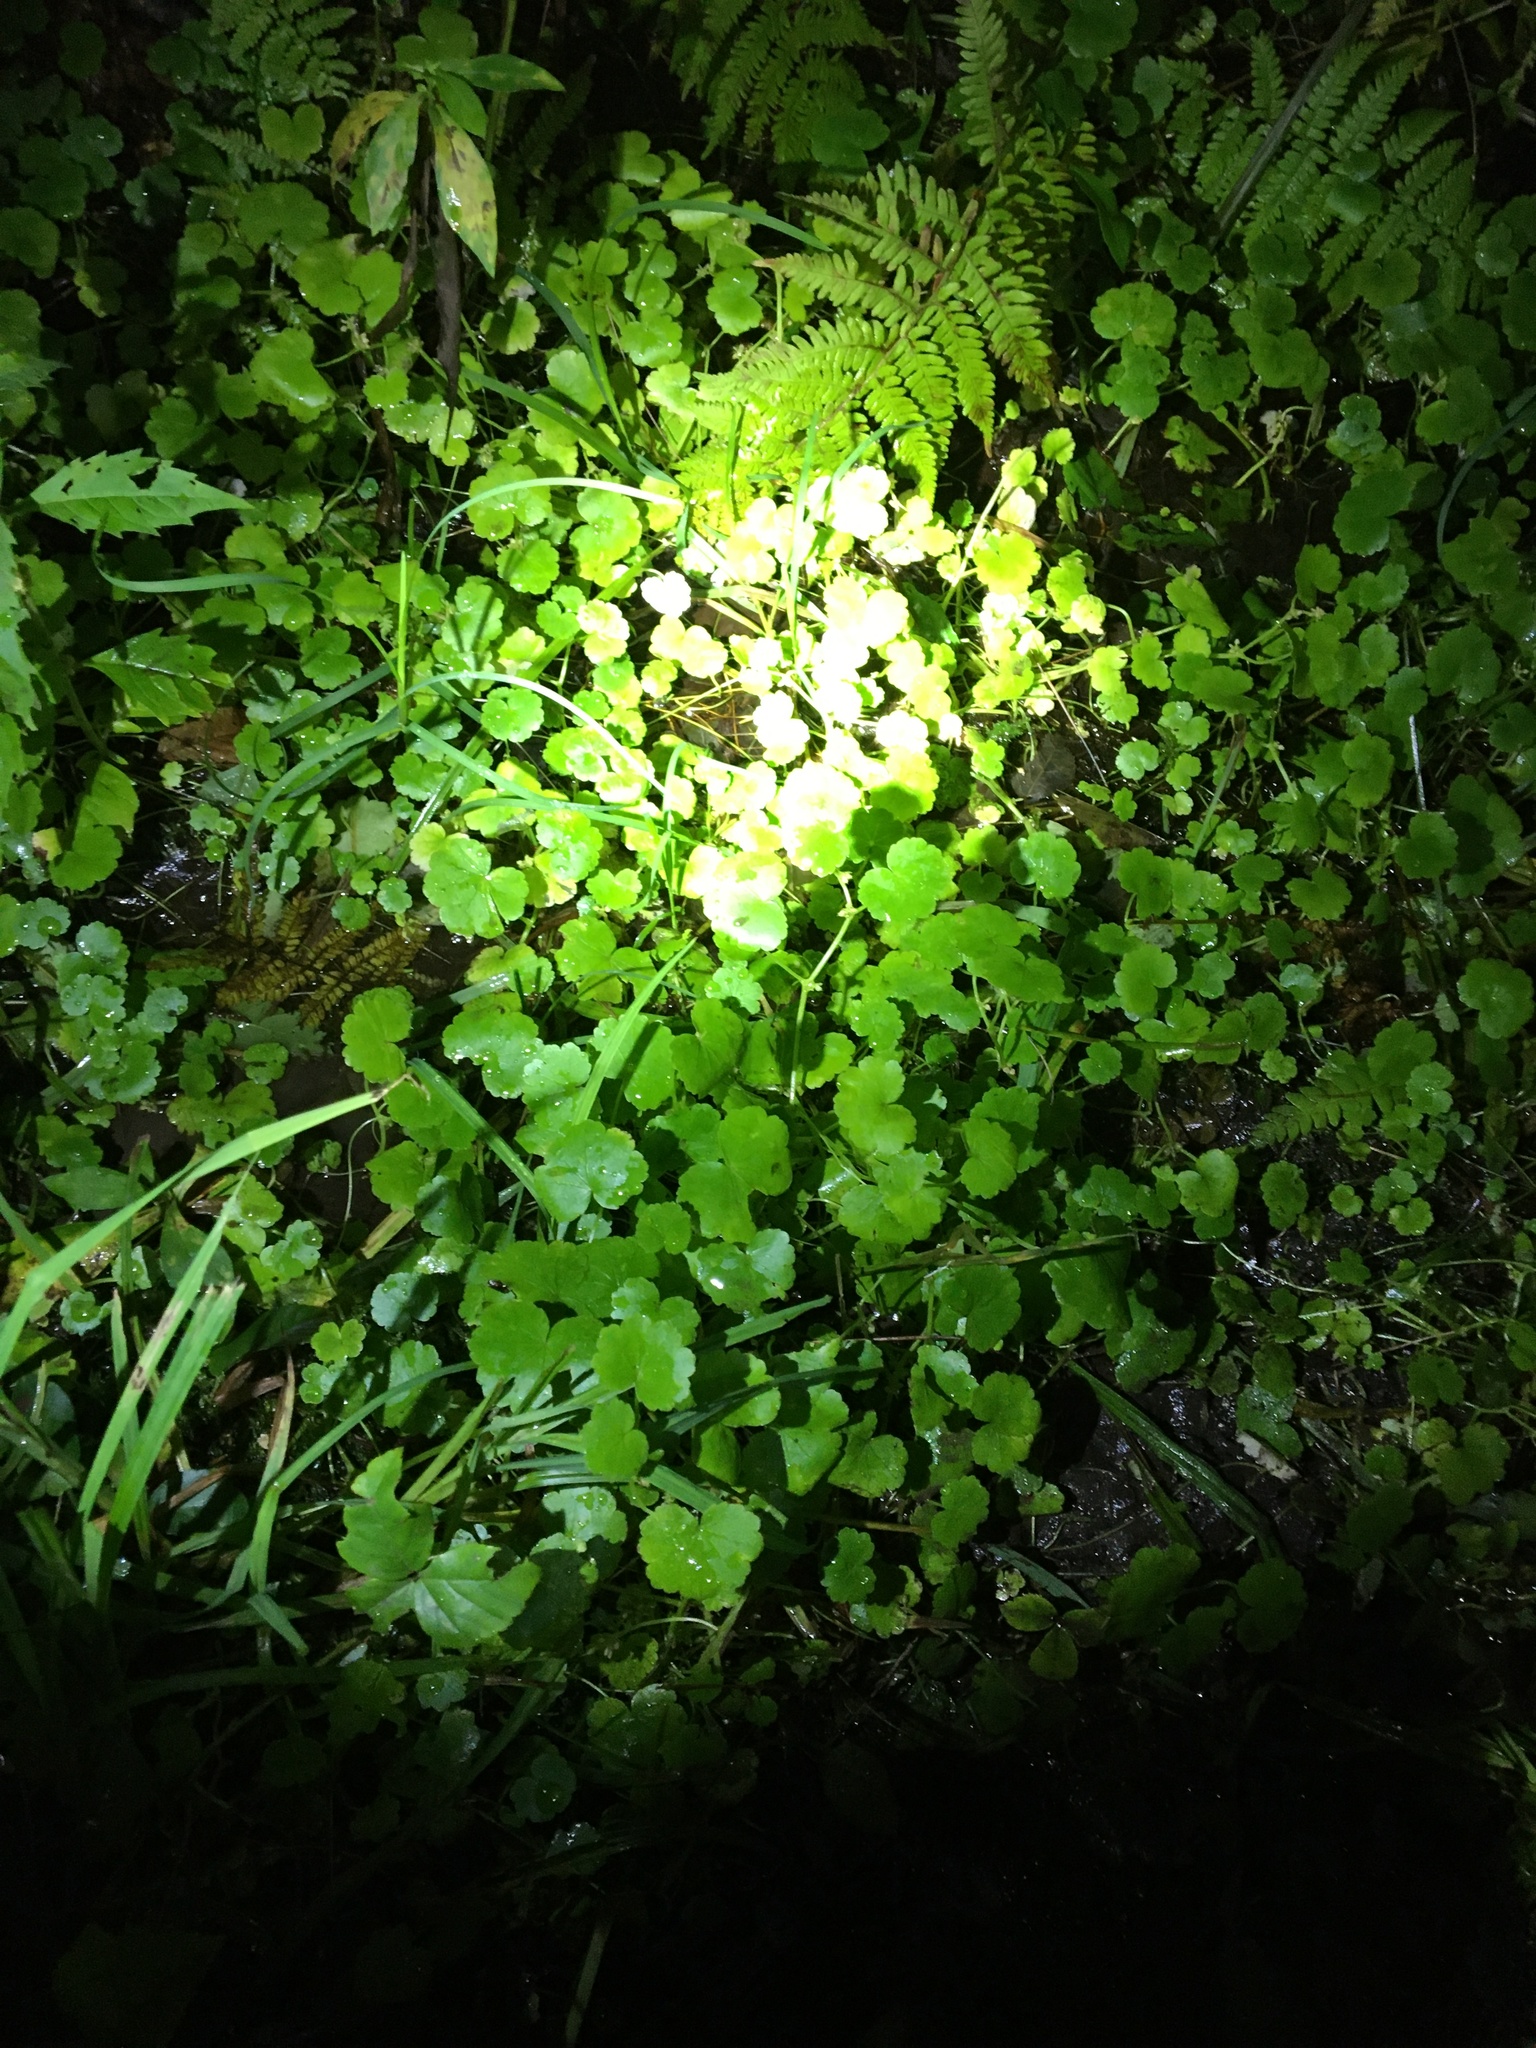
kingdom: Plantae
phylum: Tracheophyta
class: Magnoliopsida
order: Apiales
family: Araliaceae
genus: Hydrocotyle
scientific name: Hydrocotyle americana
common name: American water-pennywort
